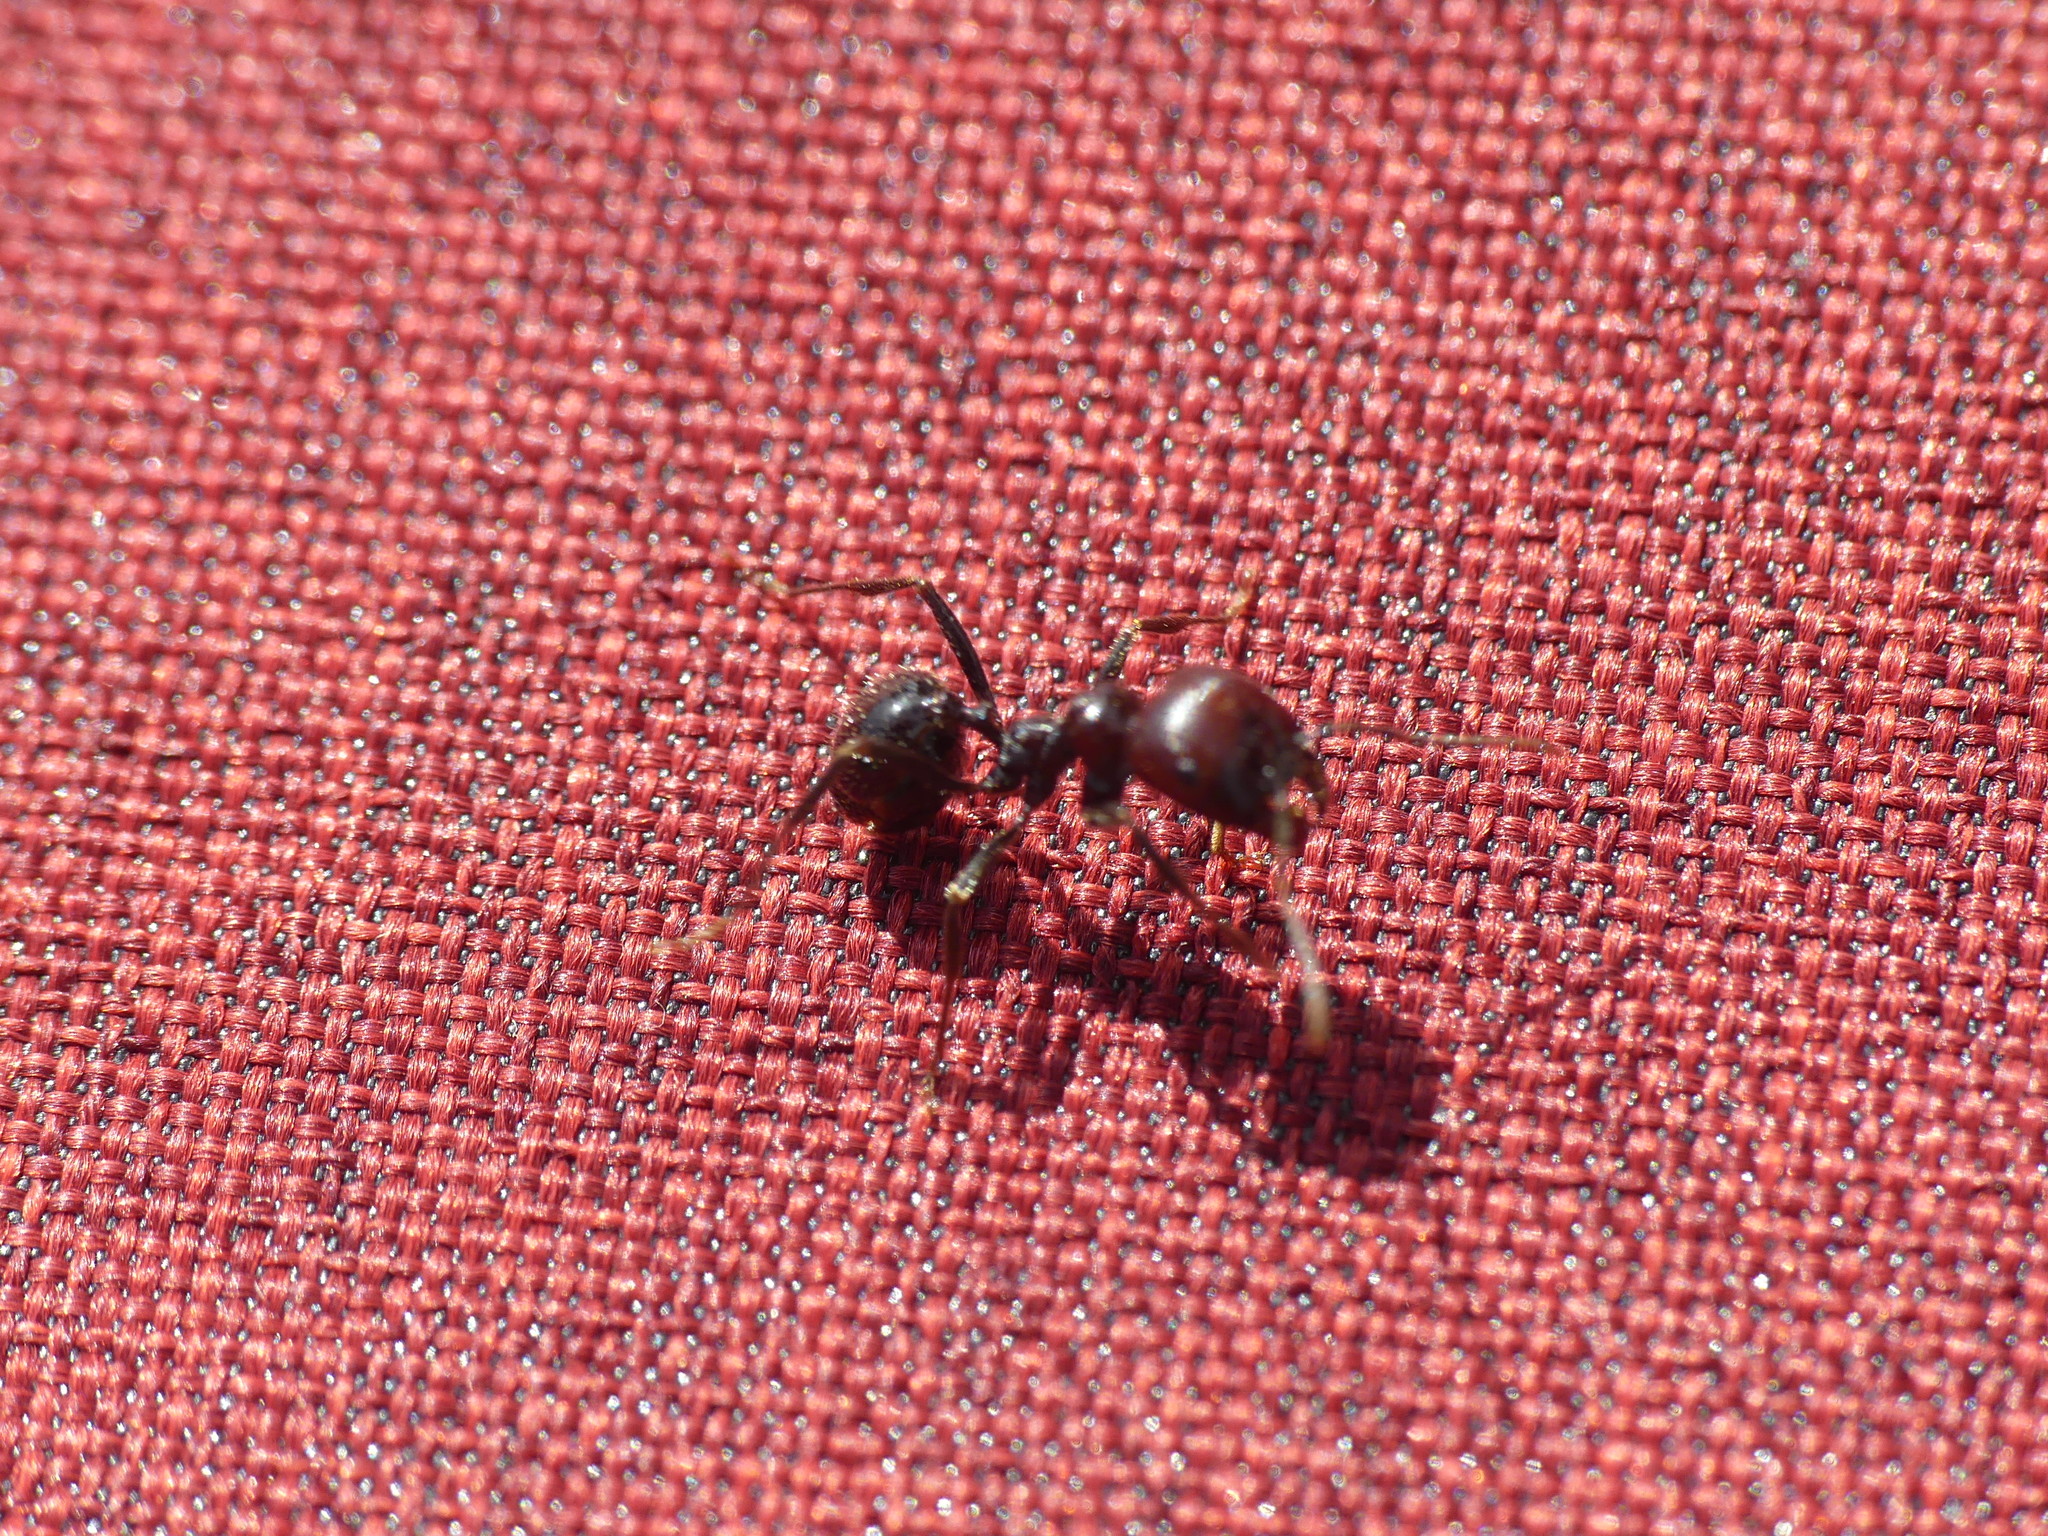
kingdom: Animalia
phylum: Arthropoda
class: Insecta
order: Hymenoptera
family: Formicidae
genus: Messor
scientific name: Messor barbarus
